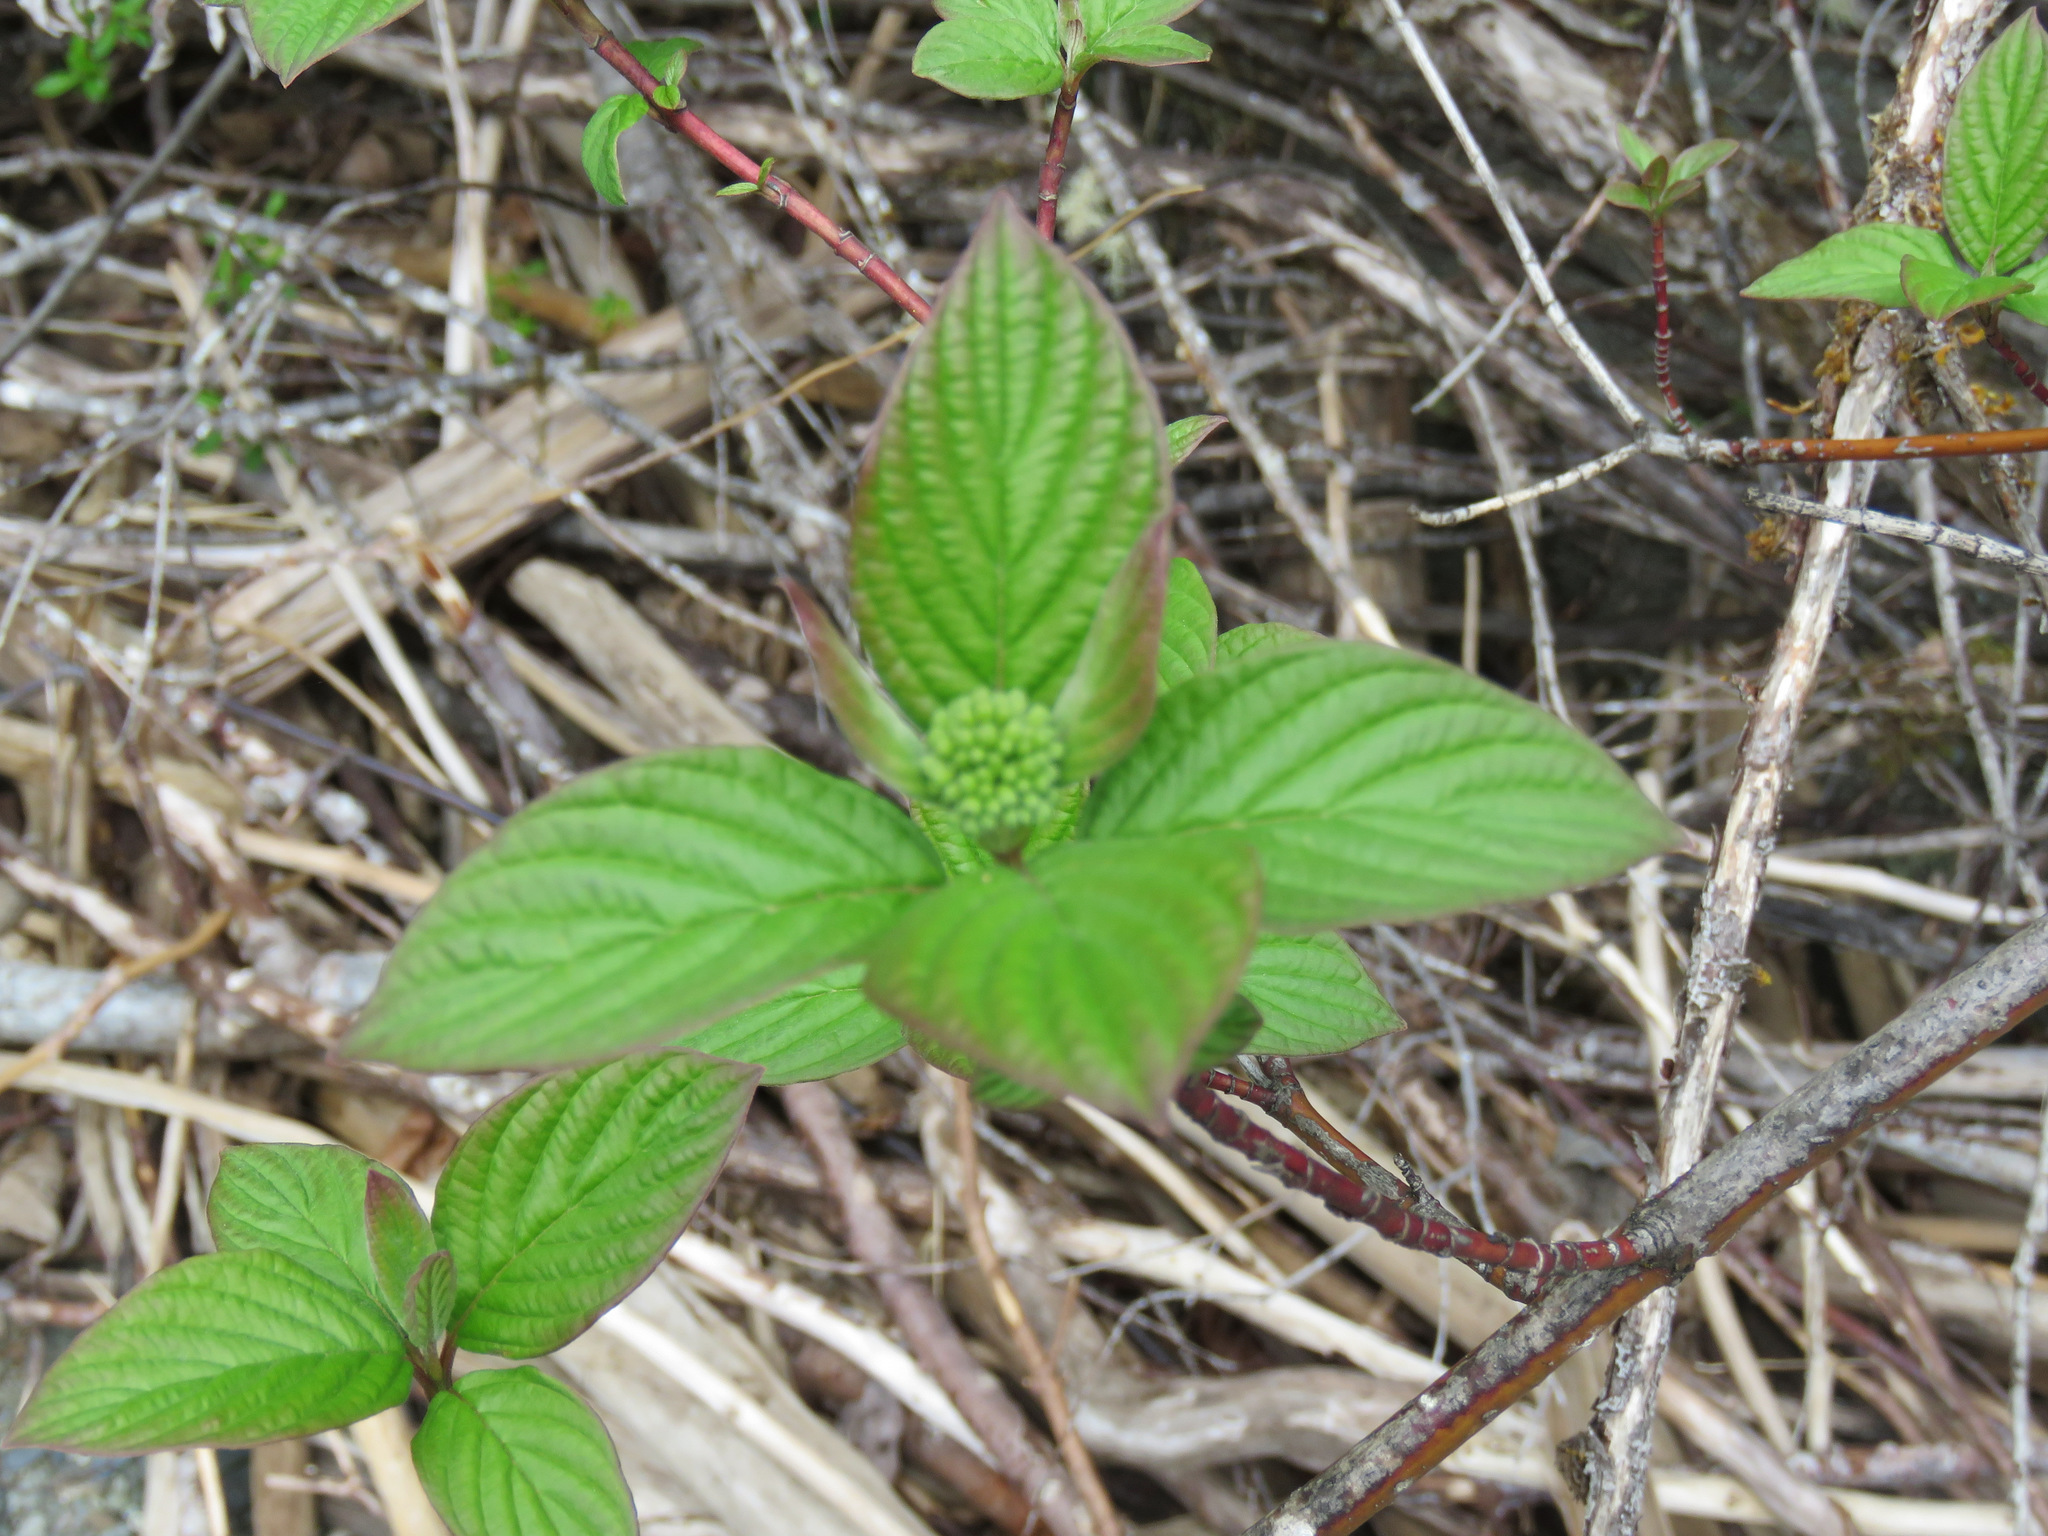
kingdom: Plantae
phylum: Tracheophyta
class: Magnoliopsida
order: Cornales
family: Cornaceae
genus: Cornus
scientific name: Cornus sericea
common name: Red-osier dogwood
